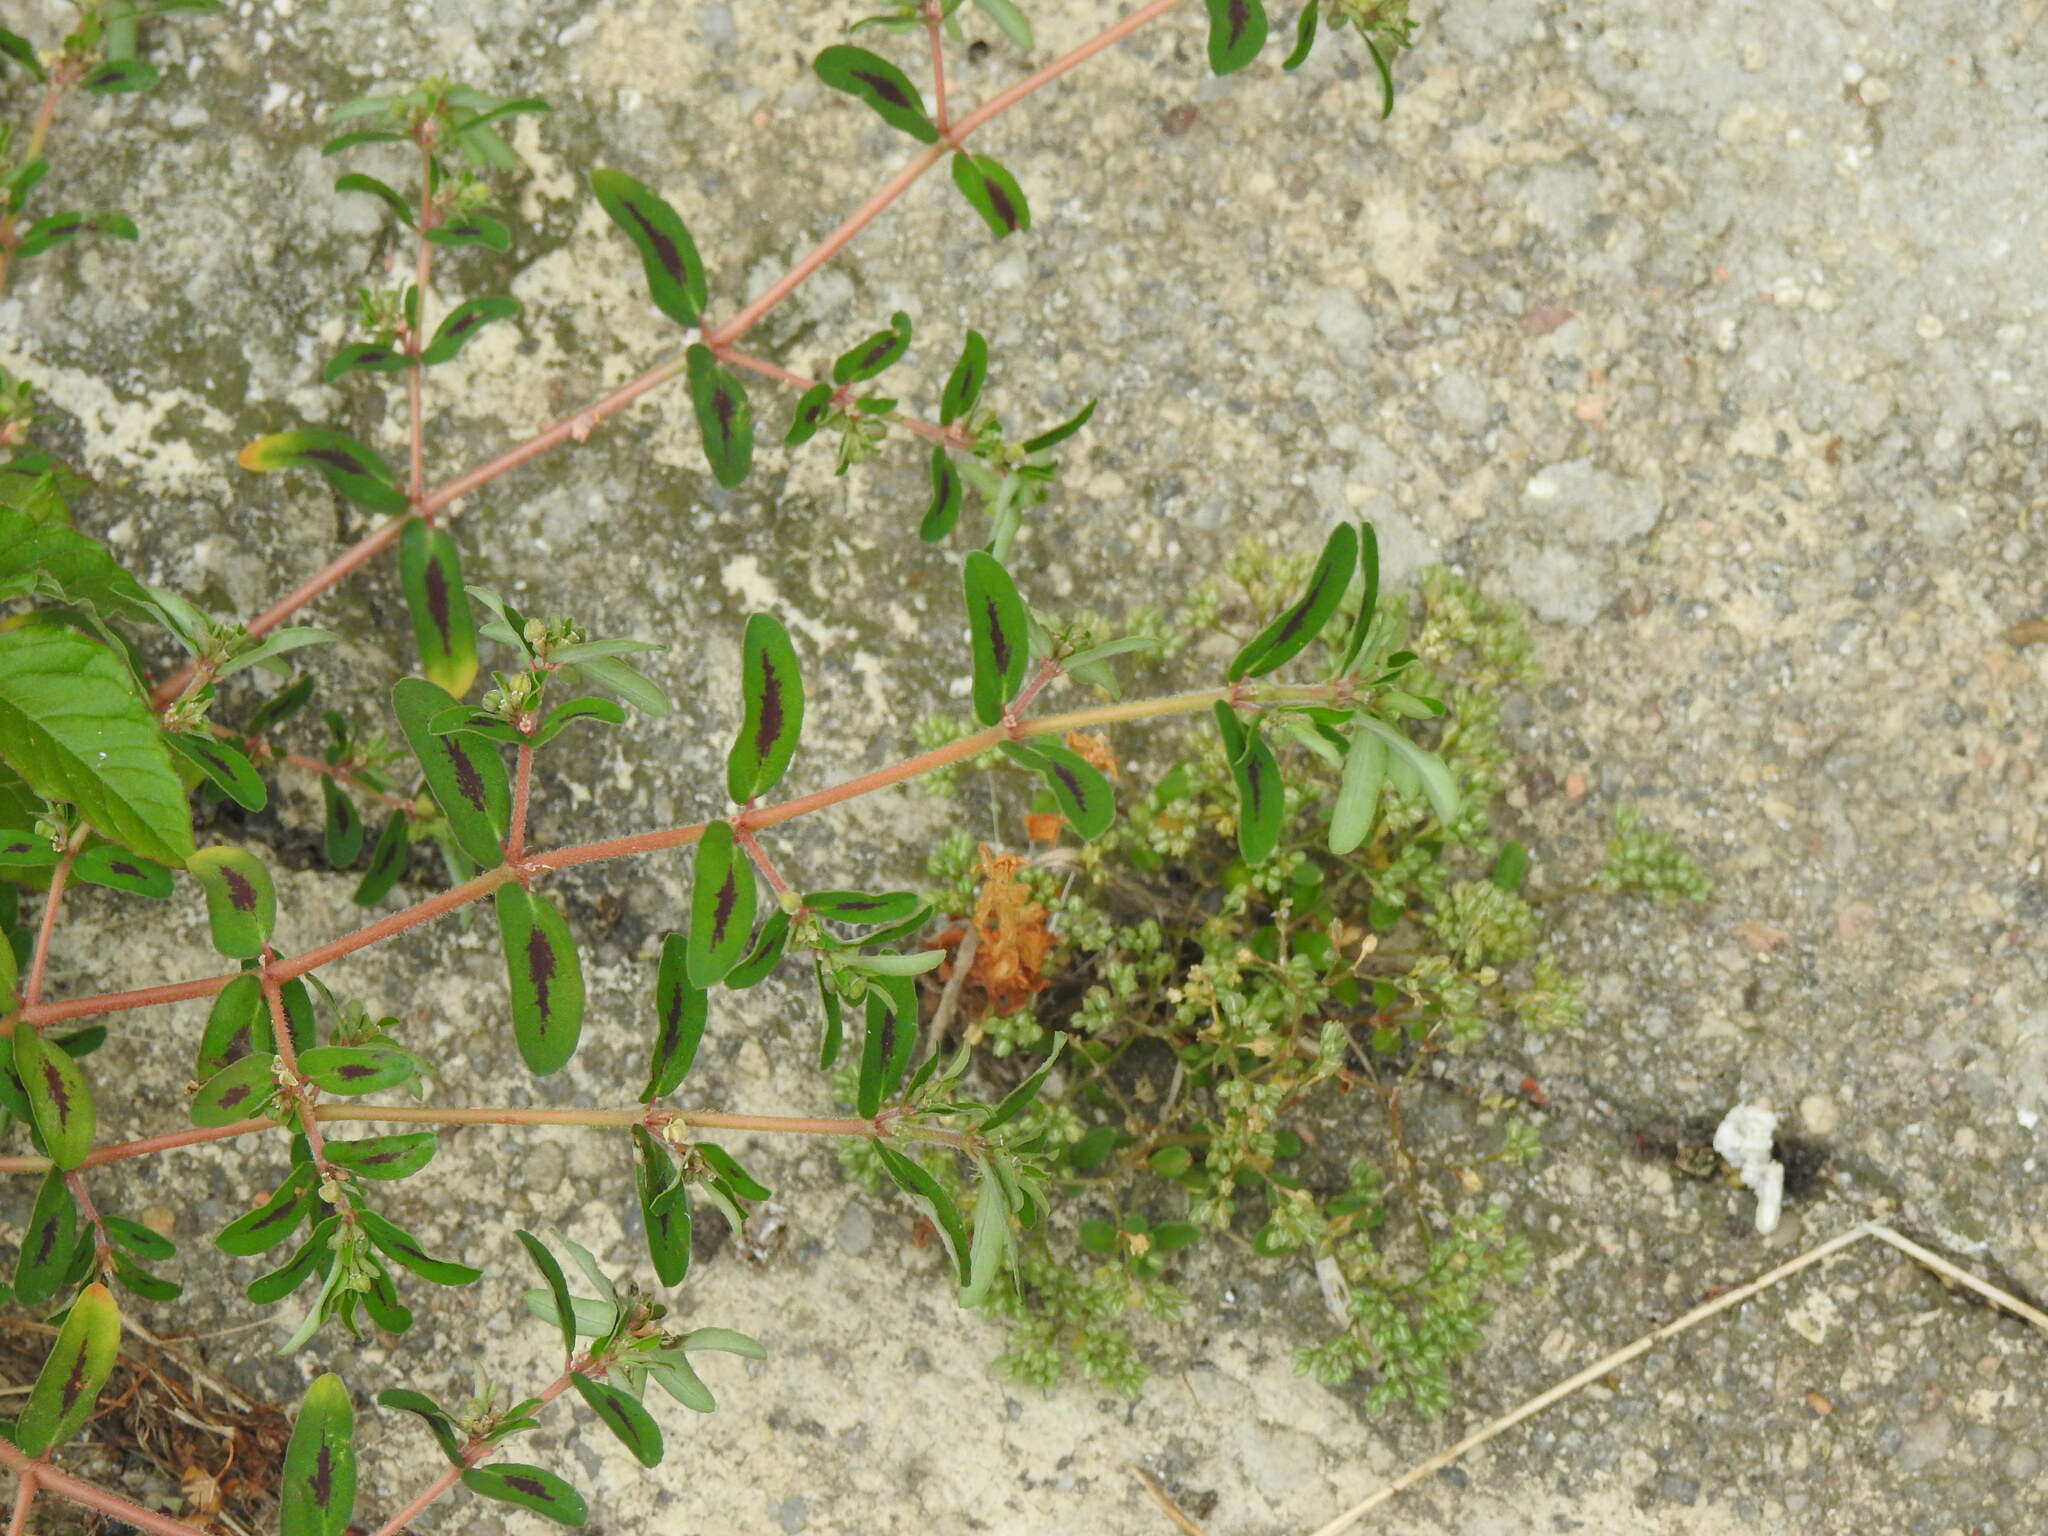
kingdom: Plantae
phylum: Tracheophyta
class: Magnoliopsida
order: Malpighiales
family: Euphorbiaceae
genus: Euphorbia
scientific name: Euphorbia maculata
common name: Spotted spurge
